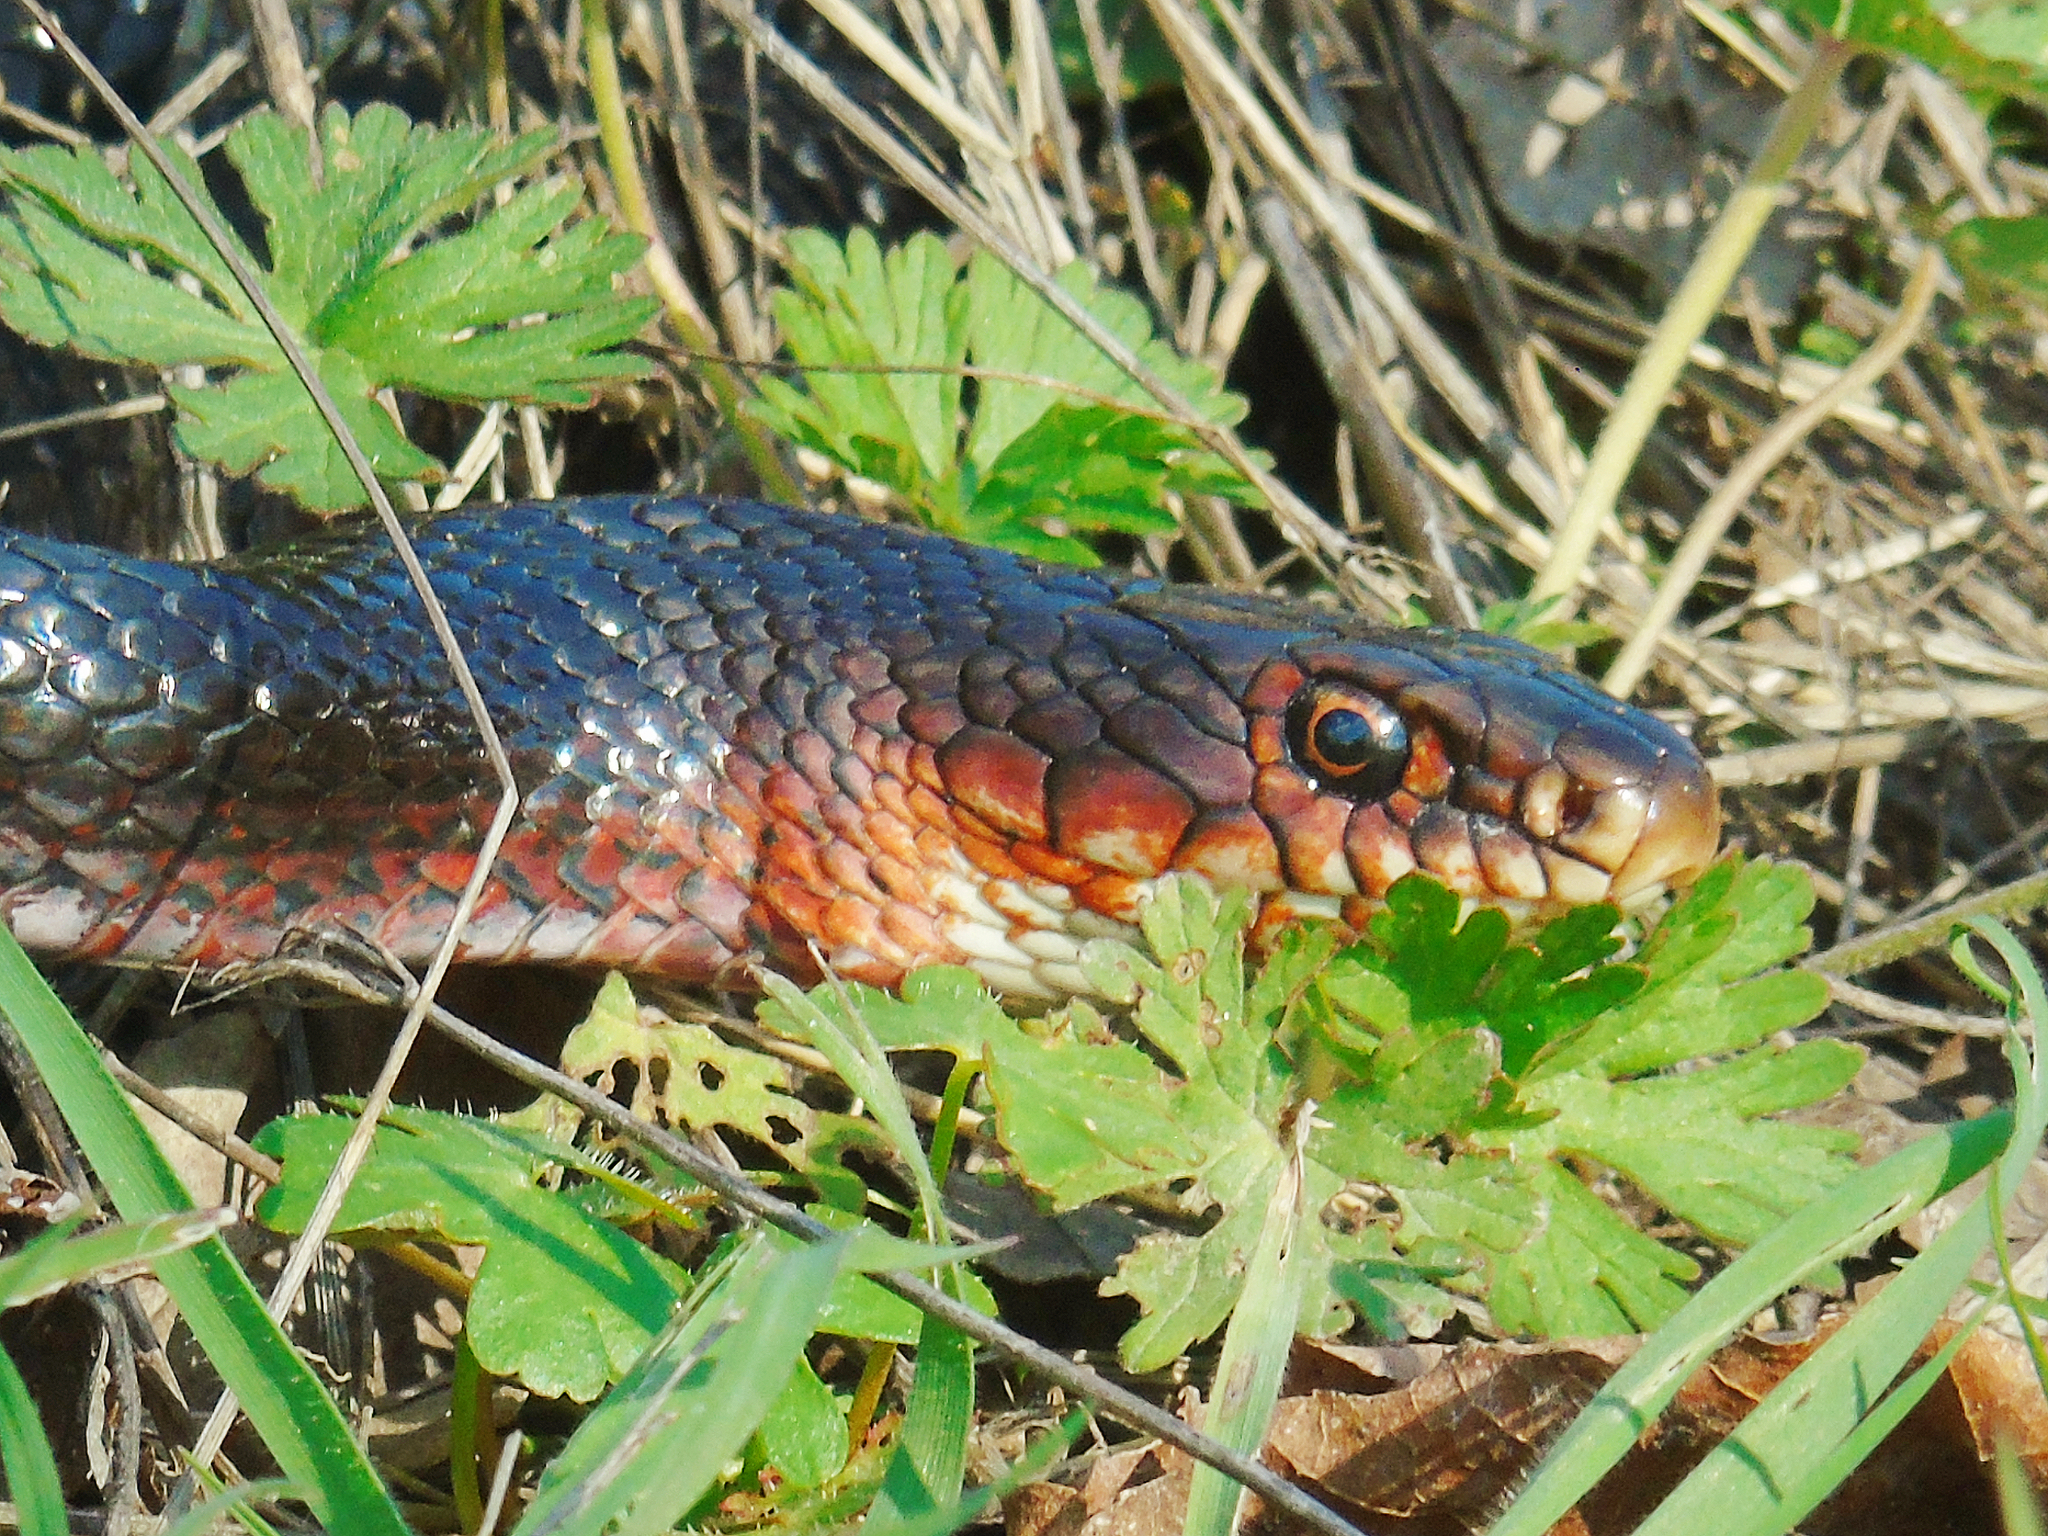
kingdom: Animalia
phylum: Chordata
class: Squamata
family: Colubridae
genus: Dolichophis
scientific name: Dolichophis jugularis
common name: Large whip snake
